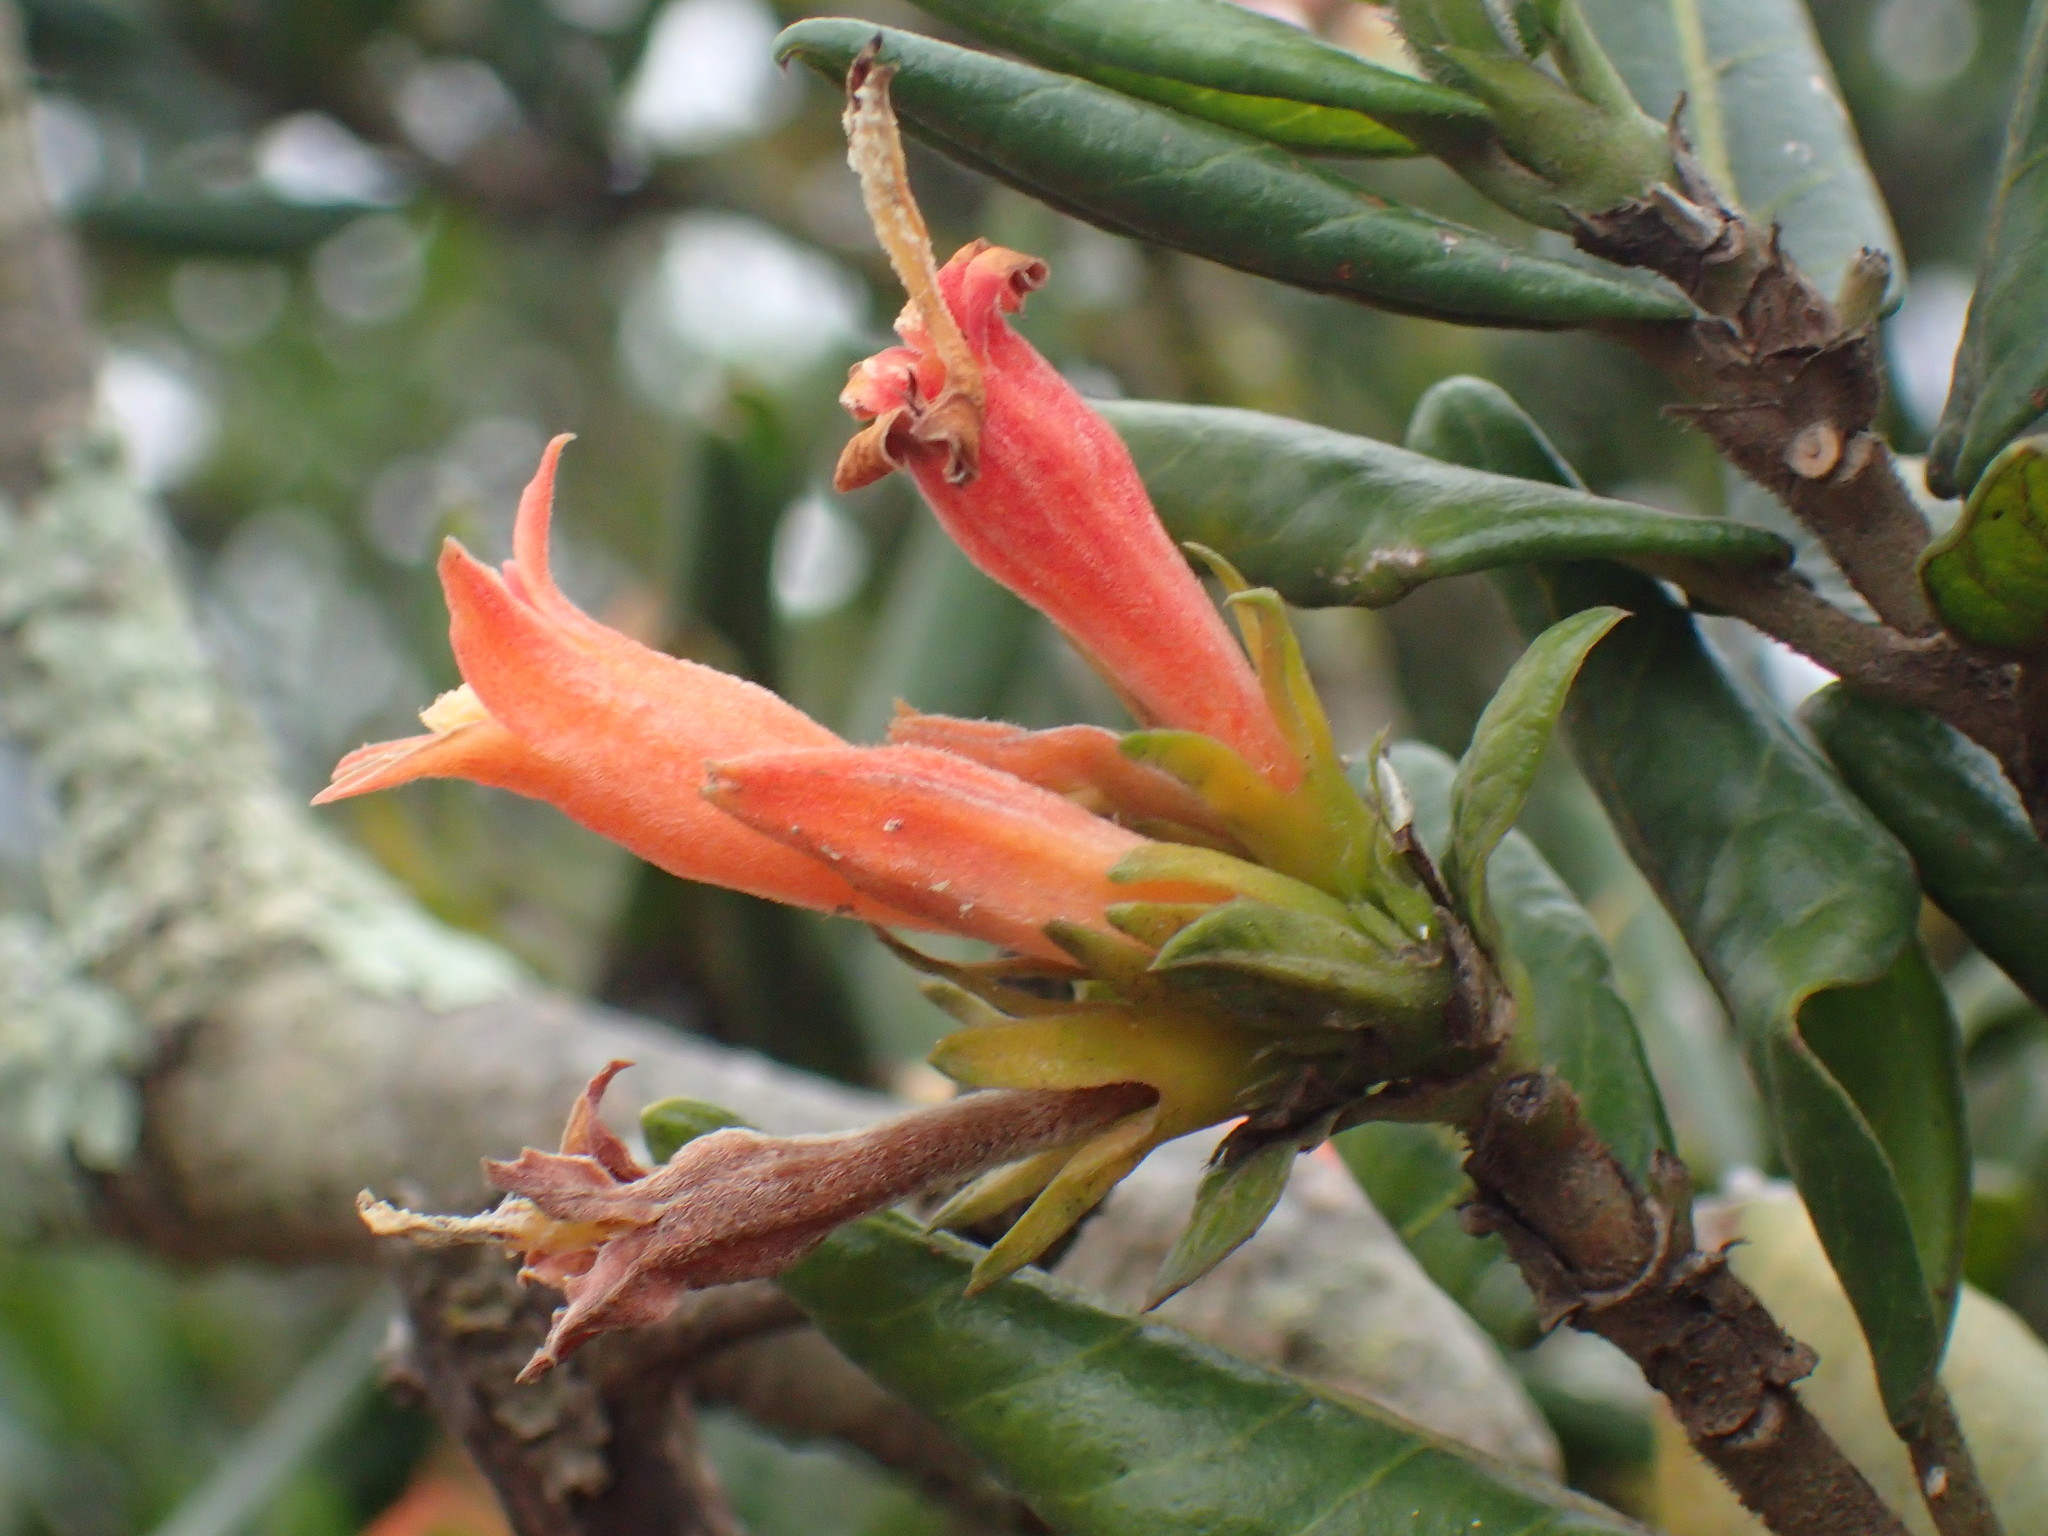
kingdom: Plantae
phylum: Tracheophyta
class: Magnoliopsida
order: Gentianales
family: Rubiaceae
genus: Burchellia
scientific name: Burchellia bubalina
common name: Wild pomegranate
